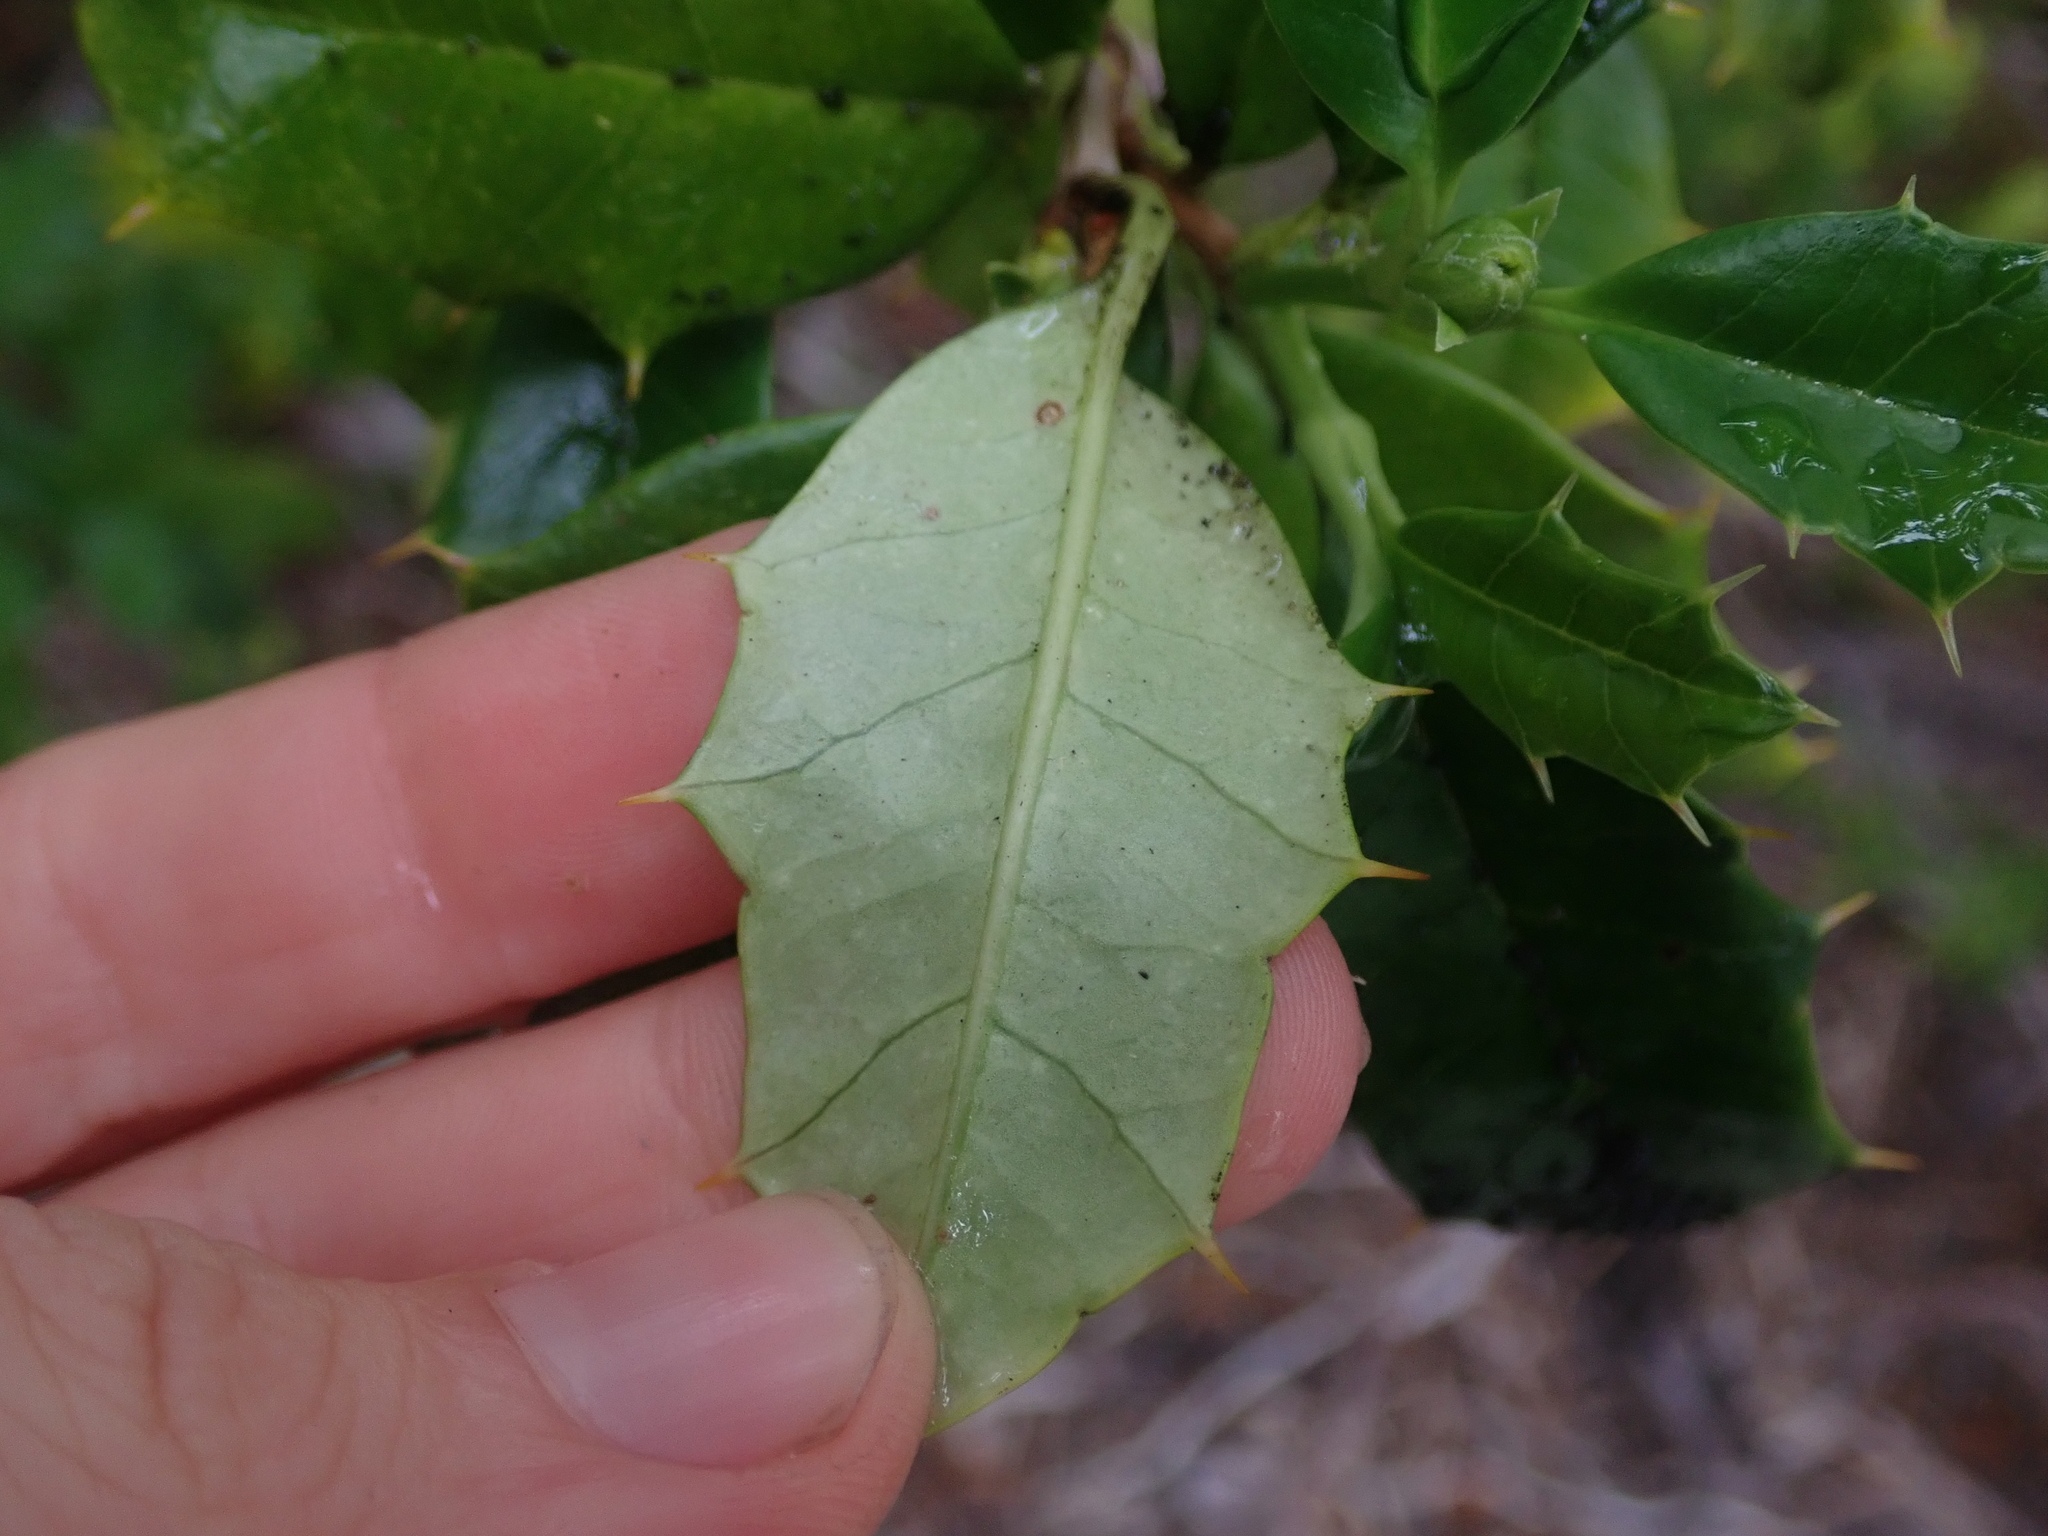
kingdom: Plantae
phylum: Tracheophyta
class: Magnoliopsida
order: Bruniales
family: Columelliaceae
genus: Desfontainia
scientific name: Desfontainia fulgens
